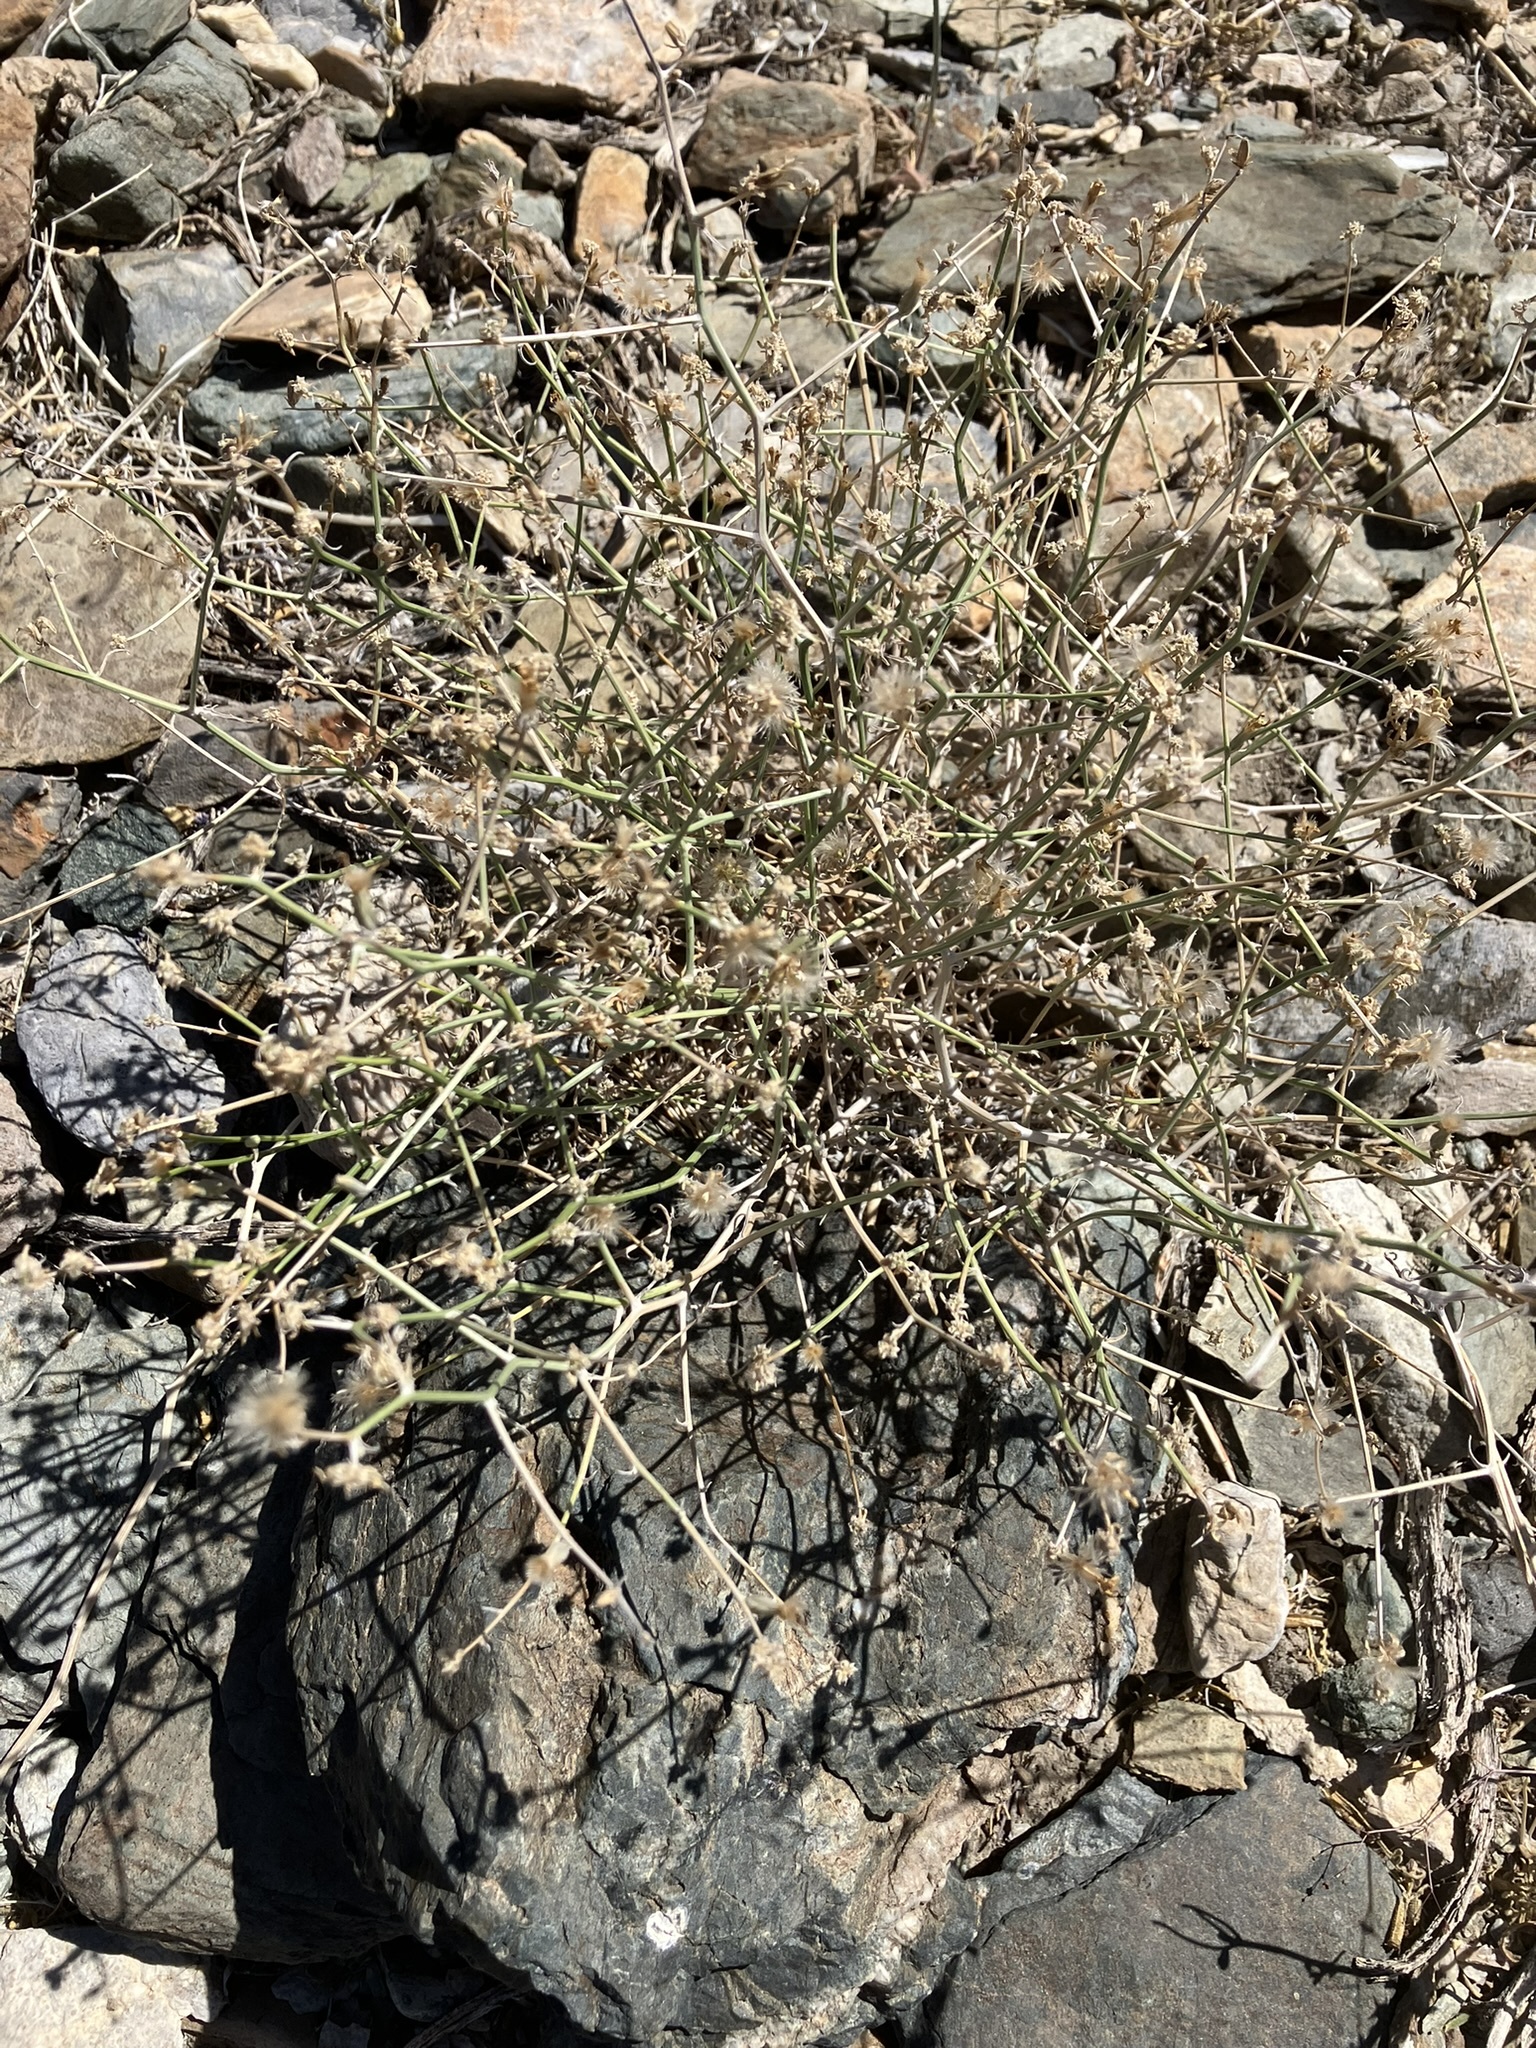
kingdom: Plantae
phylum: Tracheophyta
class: Magnoliopsida
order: Asterales
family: Asteraceae
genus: Stephanomeria
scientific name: Stephanomeria pauciflora
